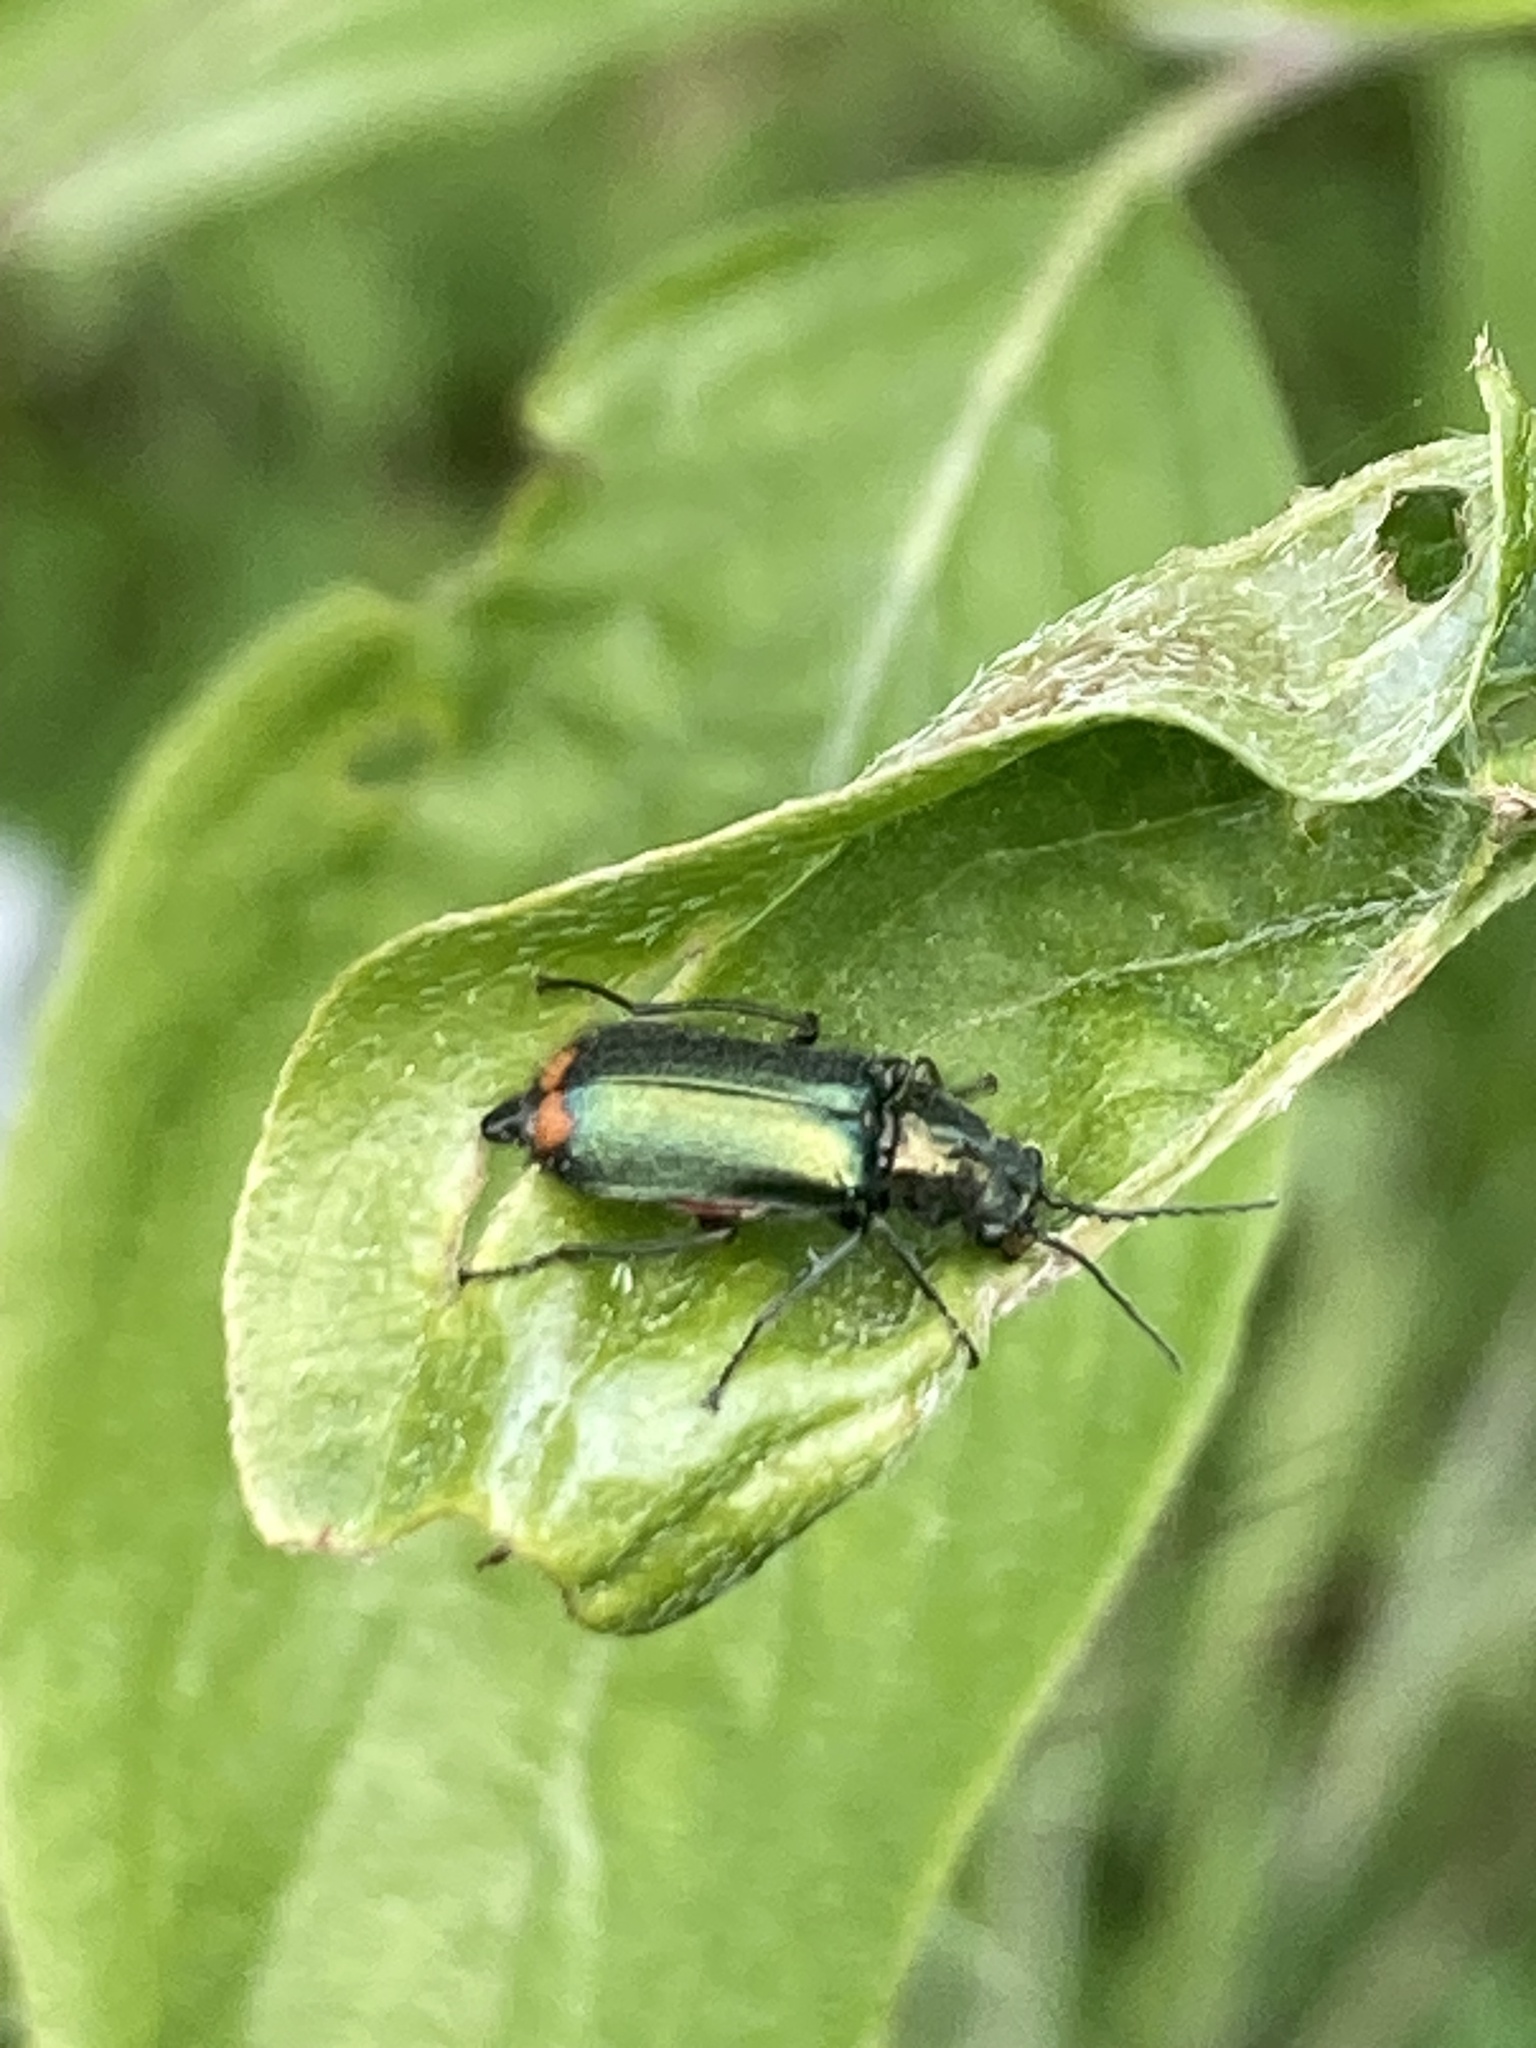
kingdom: Animalia
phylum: Arthropoda
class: Insecta
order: Coleoptera
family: Melyridae
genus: Malachius
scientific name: Malachius bipustulatus
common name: Malachite beetle
